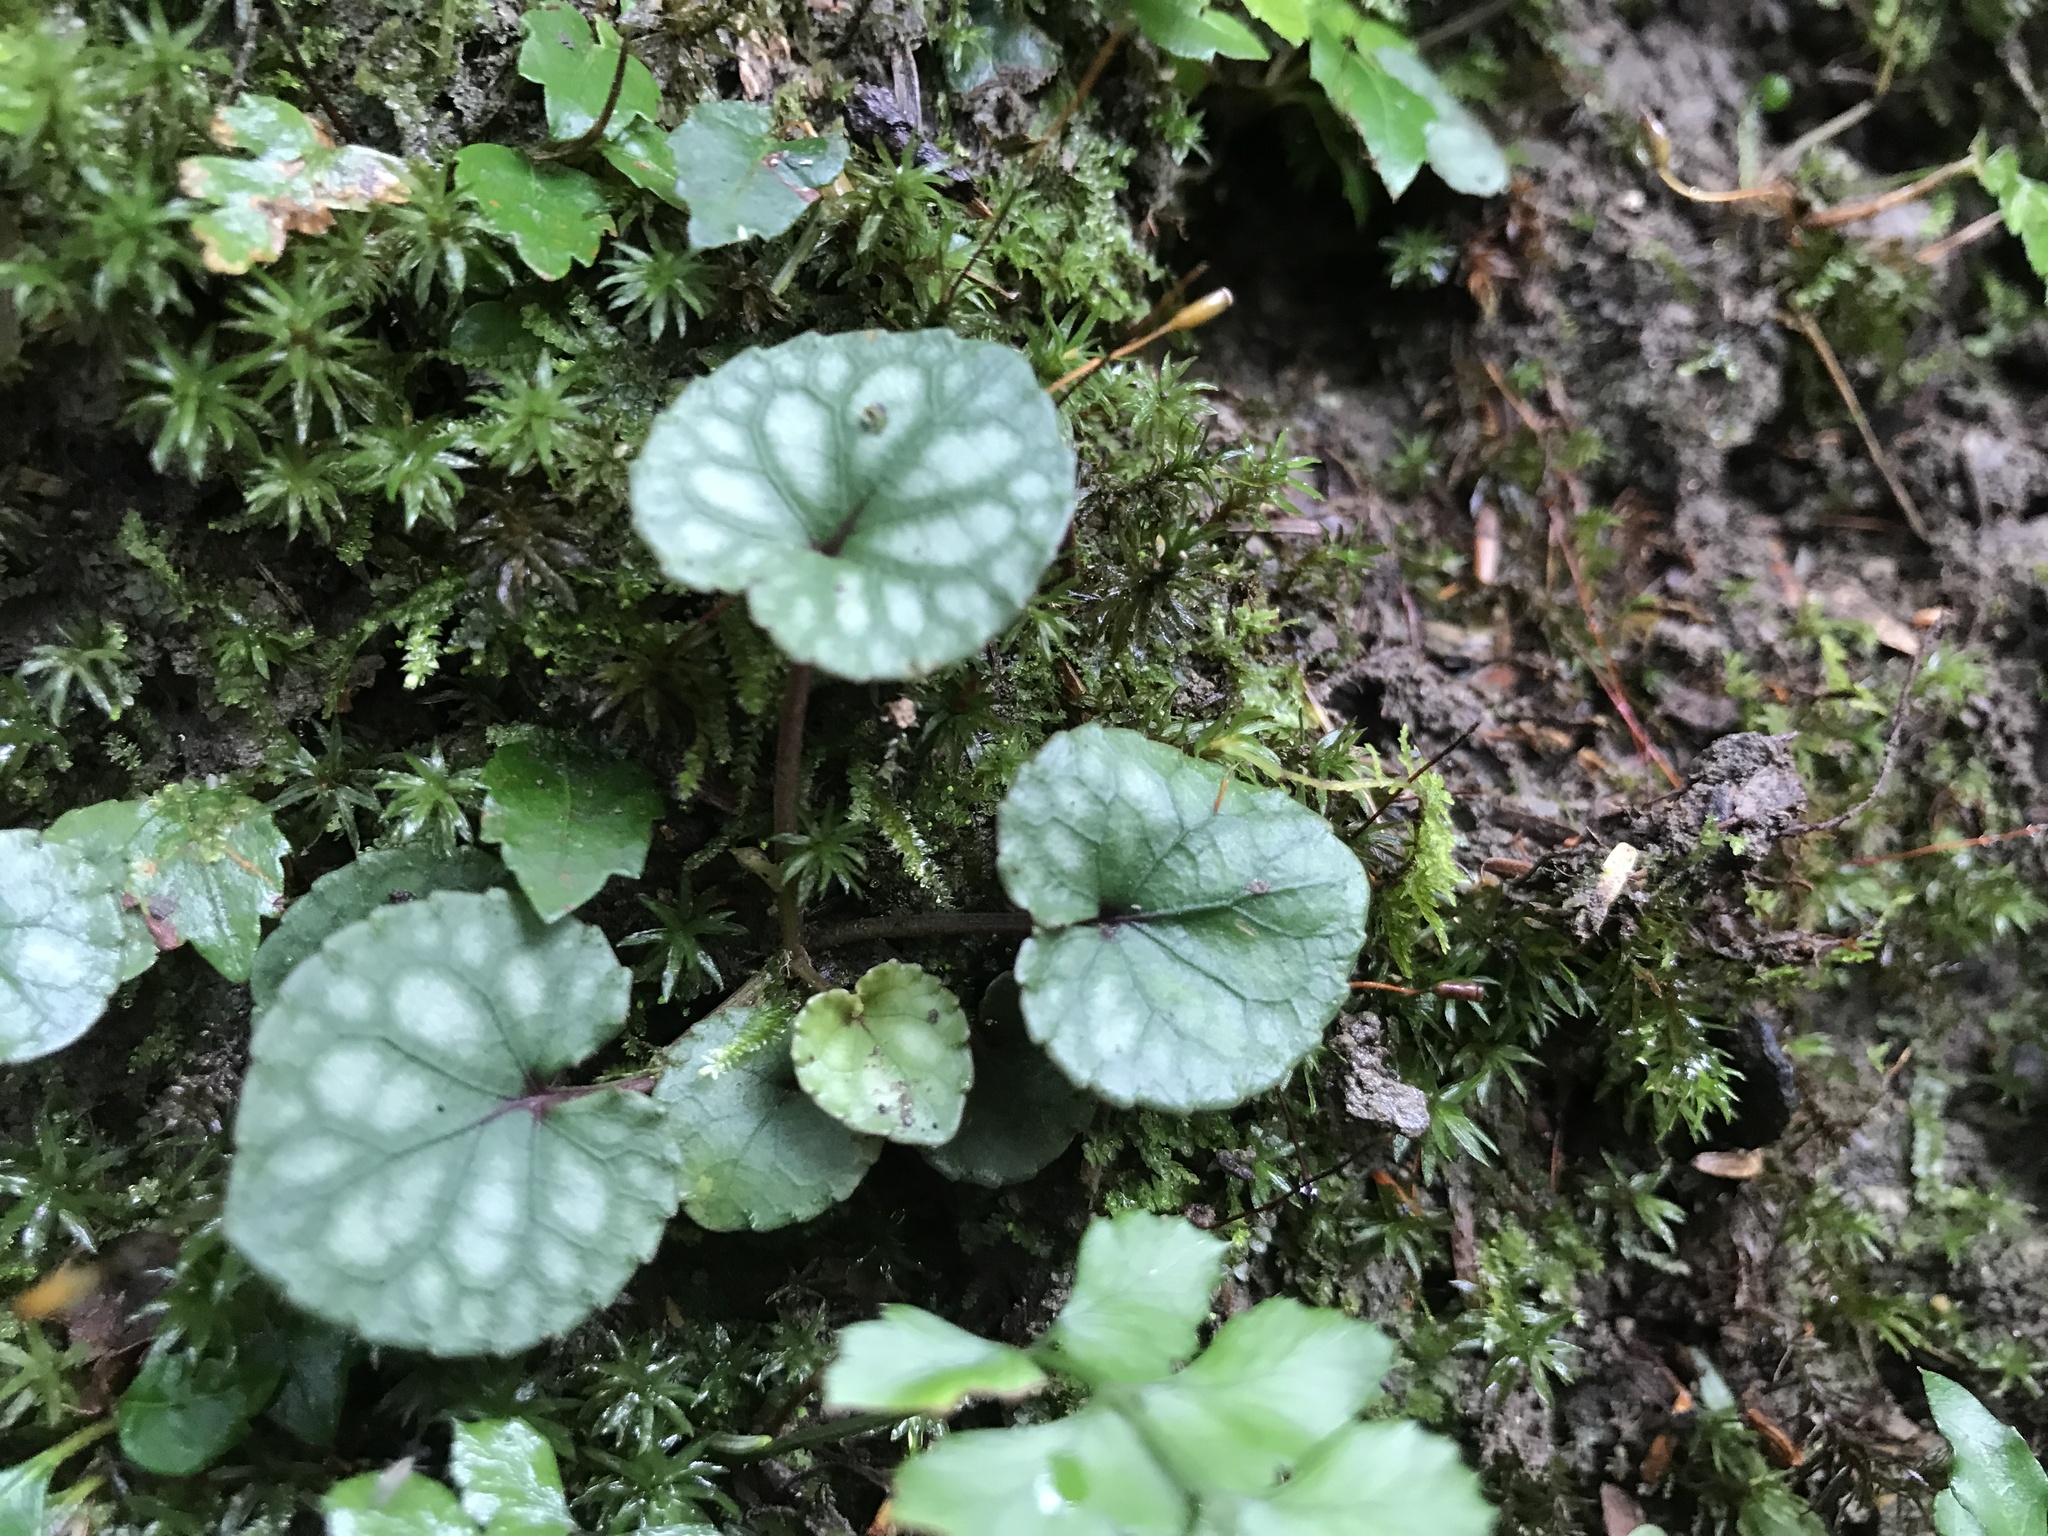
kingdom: Plantae
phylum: Tracheophyta
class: Magnoliopsida
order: Malpighiales
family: Violaceae
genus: Viola
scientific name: Viola formosana
